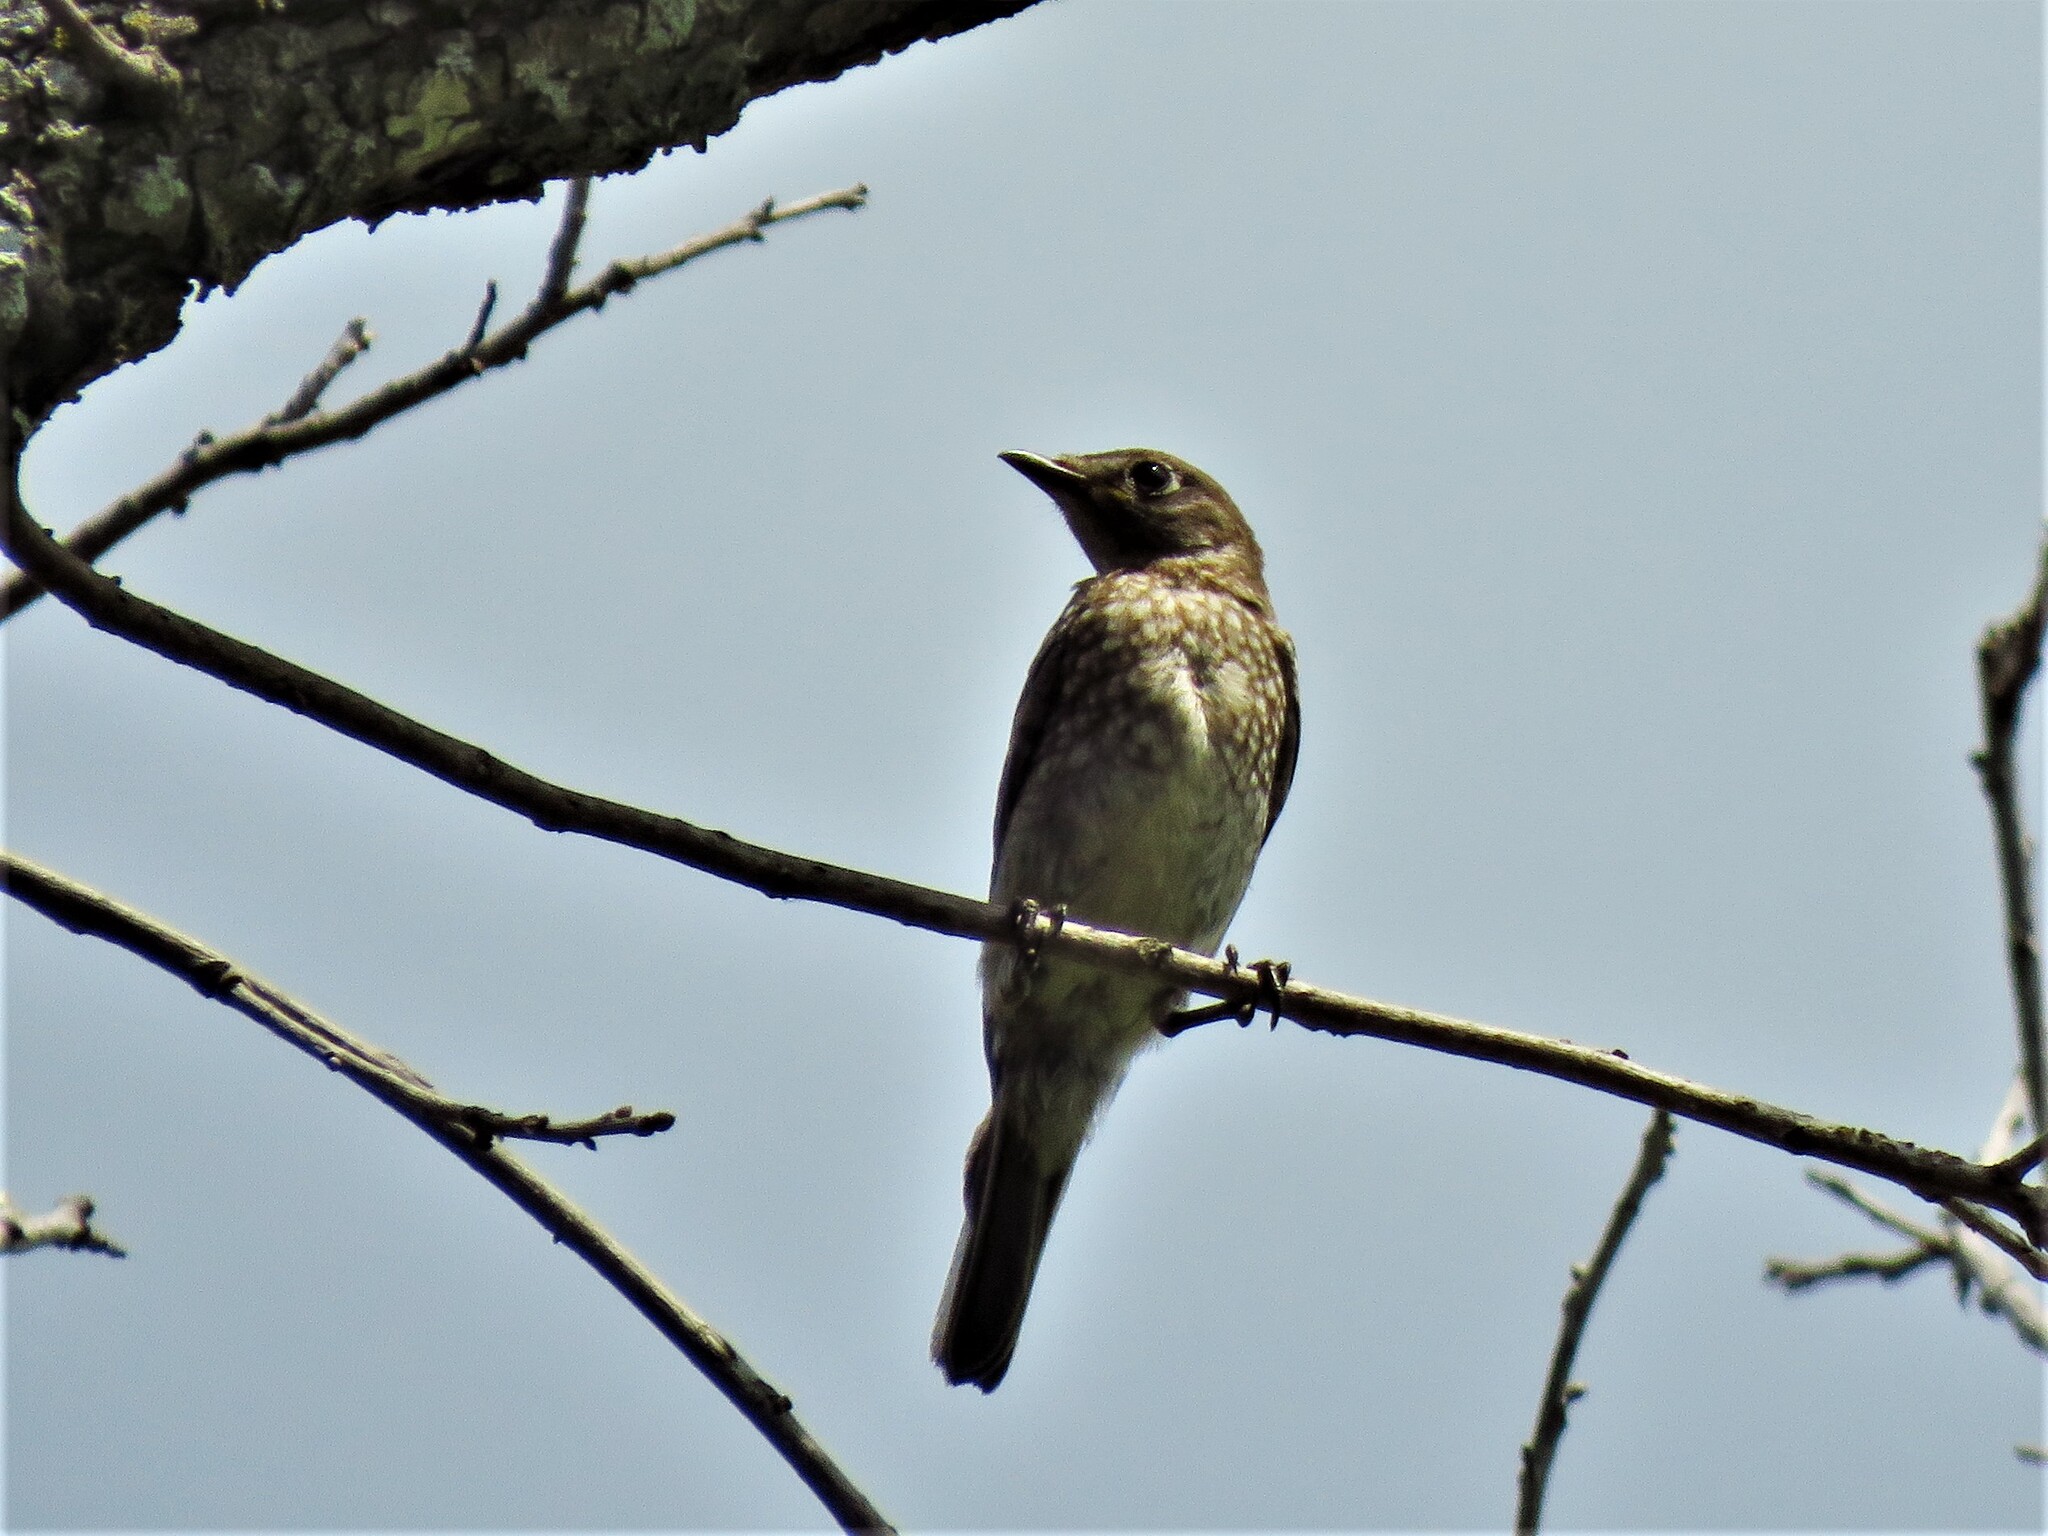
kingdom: Animalia
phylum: Chordata
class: Aves
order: Passeriformes
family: Turdidae
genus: Sialia
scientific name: Sialia sialis
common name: Eastern bluebird
